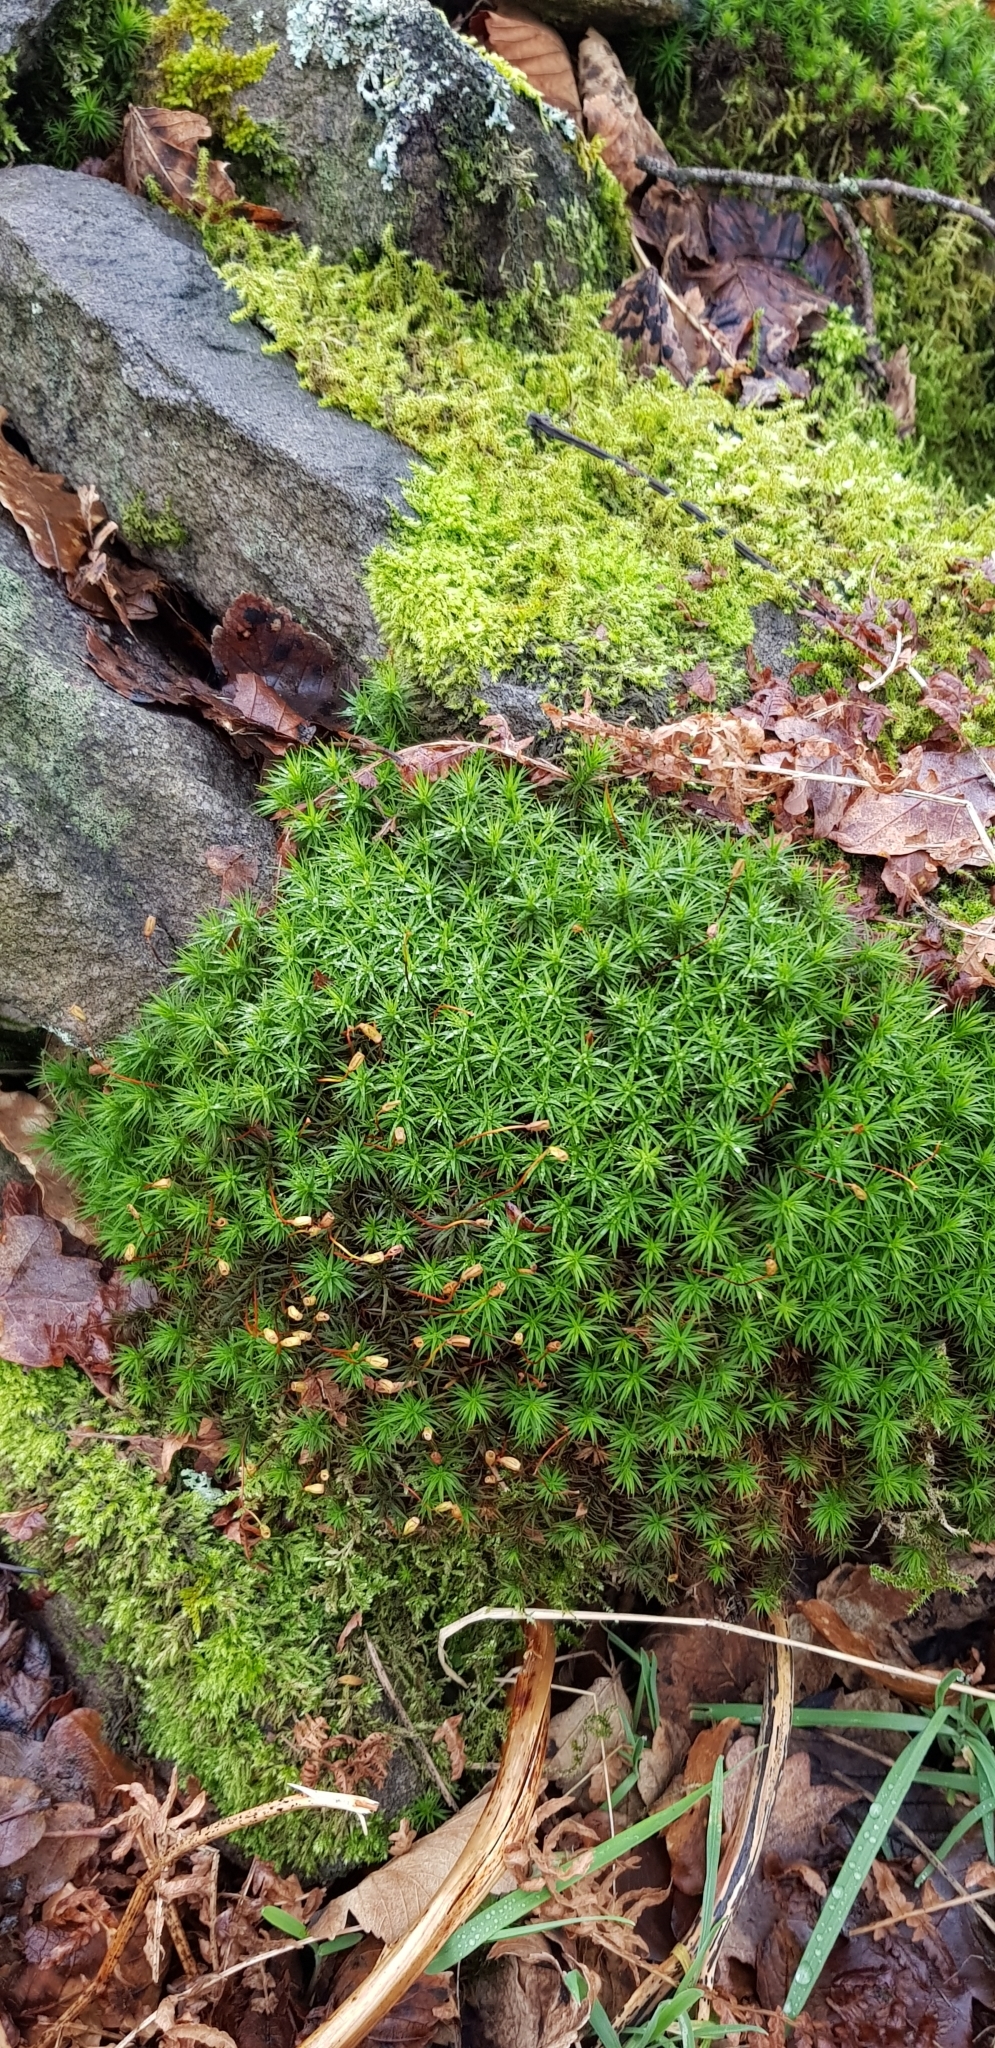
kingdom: Plantae
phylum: Bryophyta
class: Polytrichopsida
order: Polytrichales
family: Polytrichaceae
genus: Polytrichum
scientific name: Polytrichum formosum
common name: Bank haircap moss
